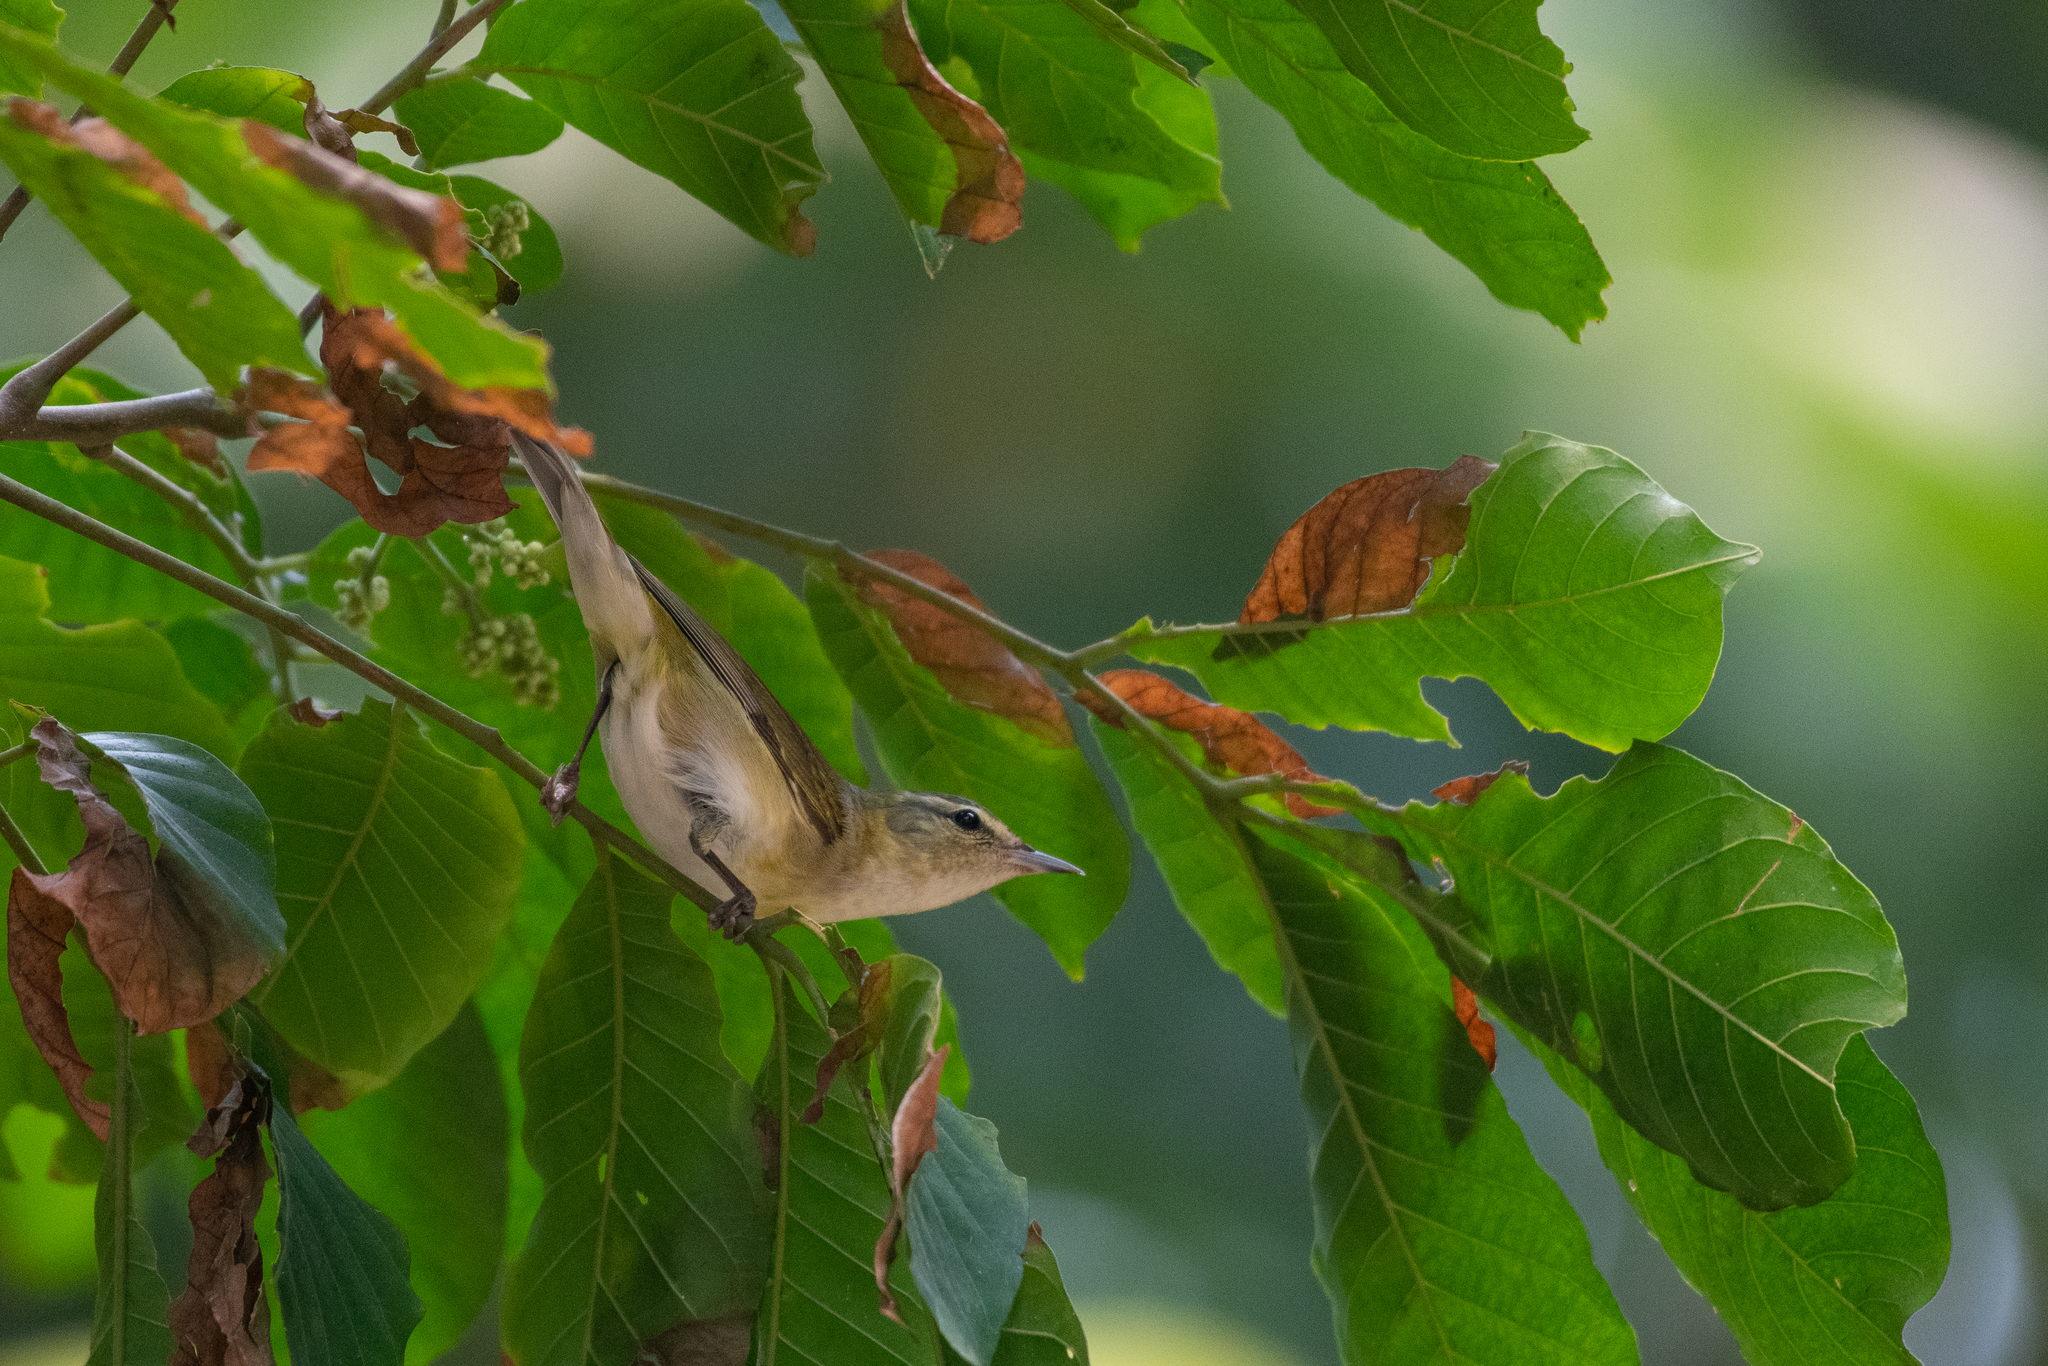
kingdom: Animalia
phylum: Chordata
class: Aves
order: Passeriformes
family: Parulidae
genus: Leiothlypis
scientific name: Leiothlypis peregrina
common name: Tennessee warbler
